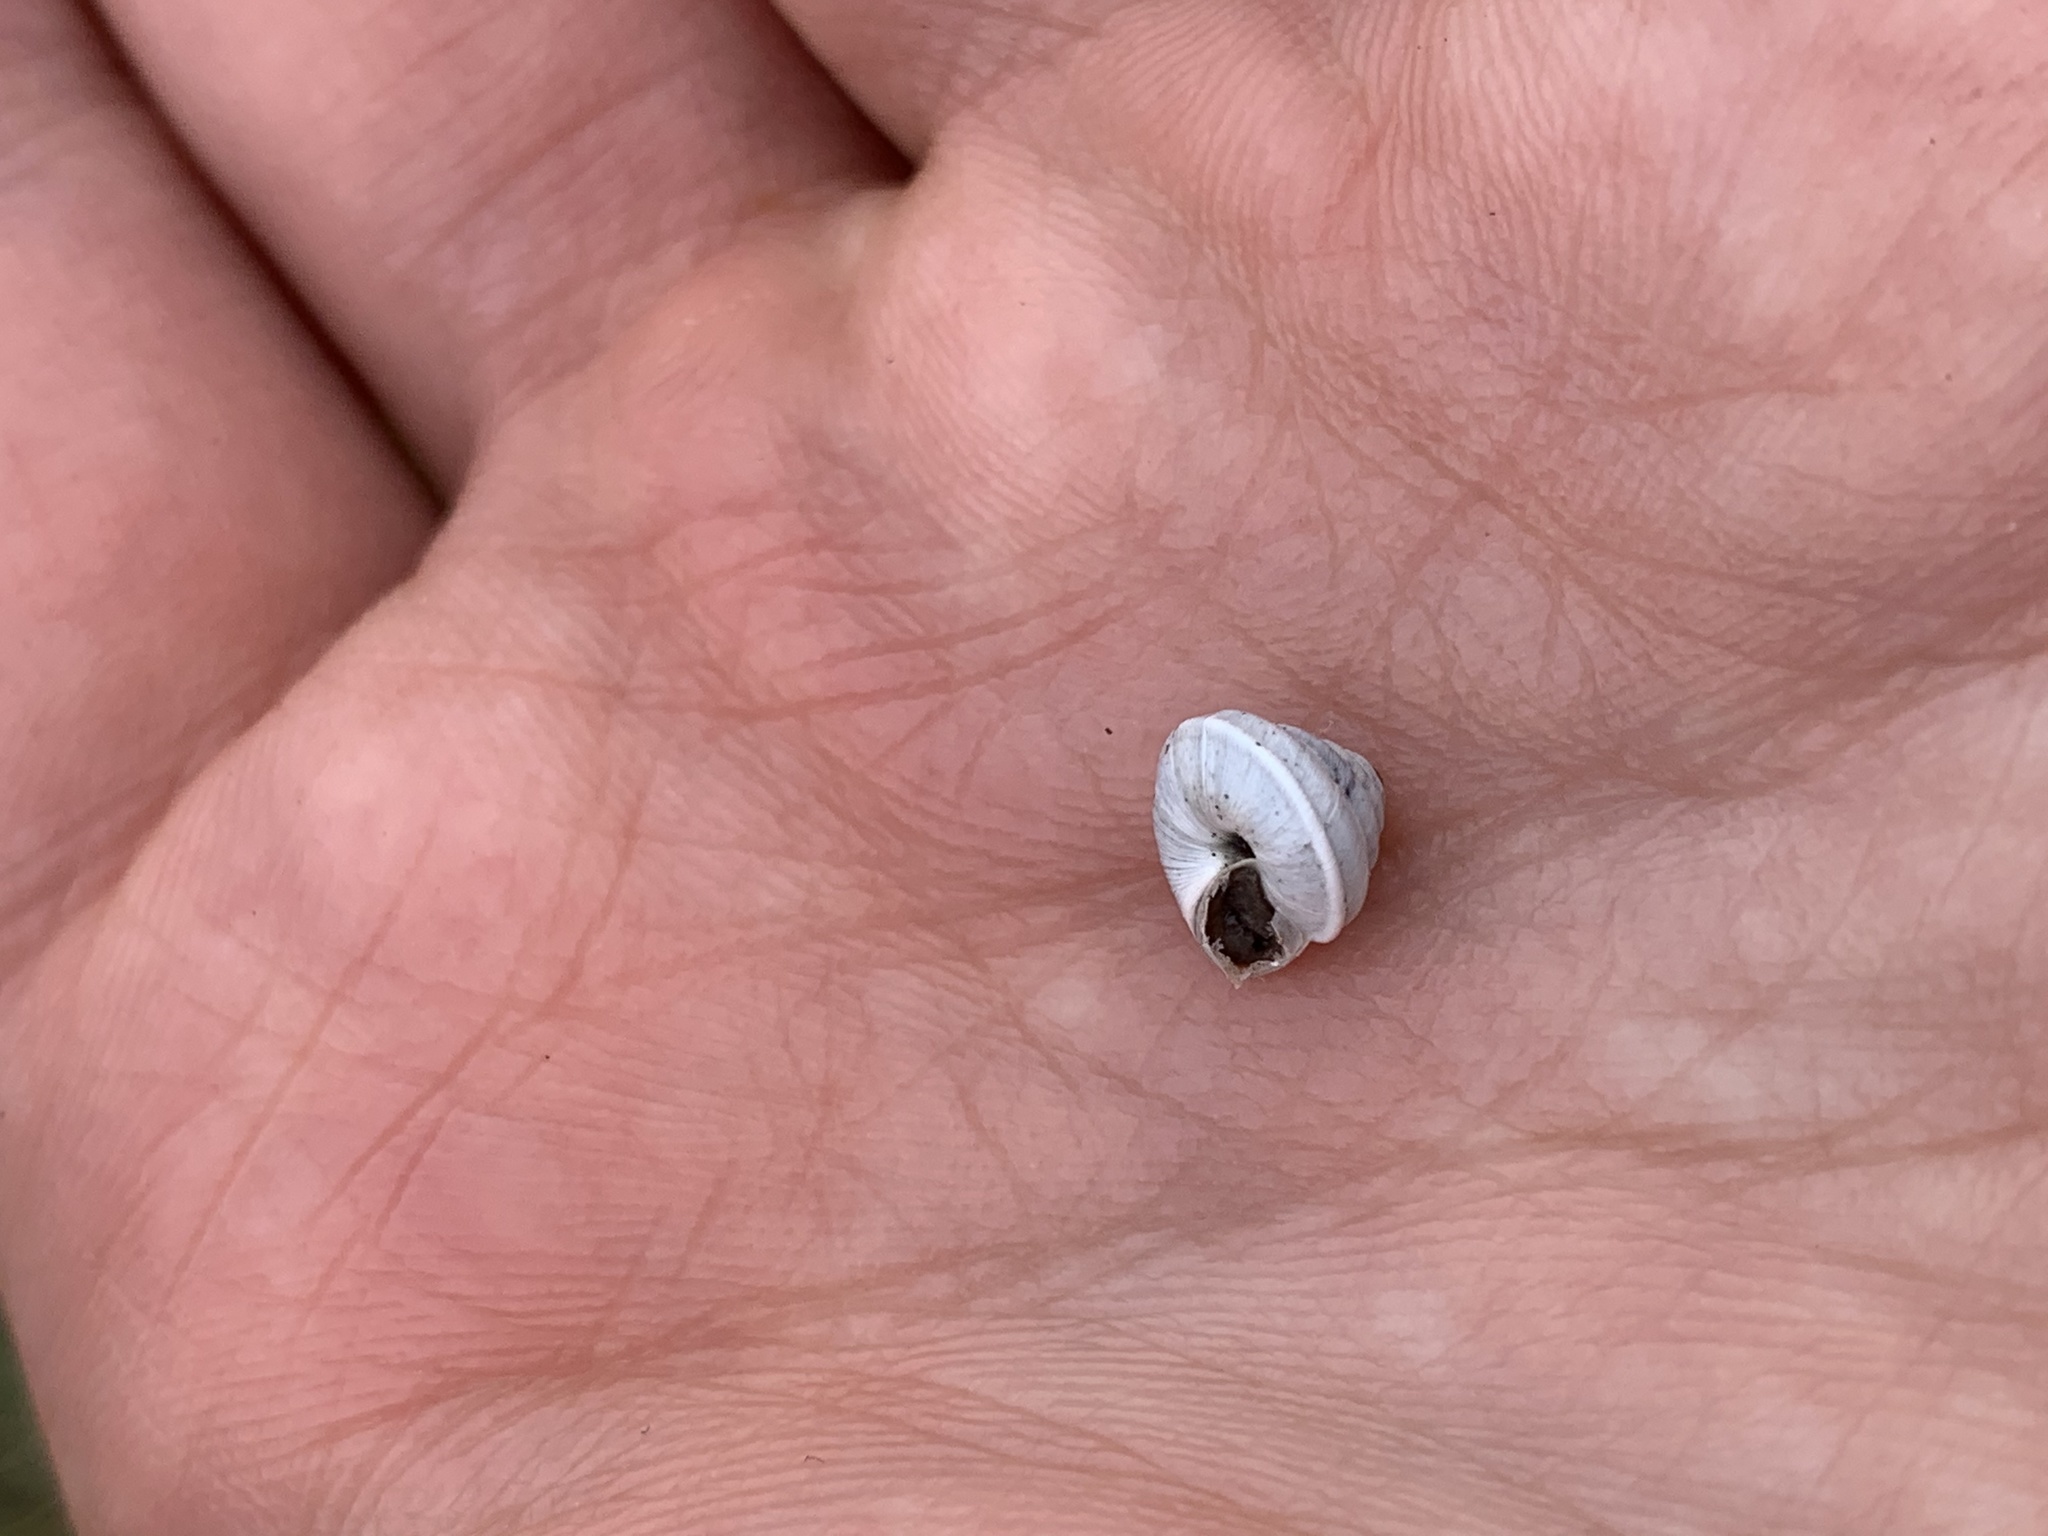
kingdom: Animalia
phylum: Mollusca
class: Gastropoda
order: Stylommatophora
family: Geomitridae
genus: Trochoidea
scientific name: Trochoidea trochoides
